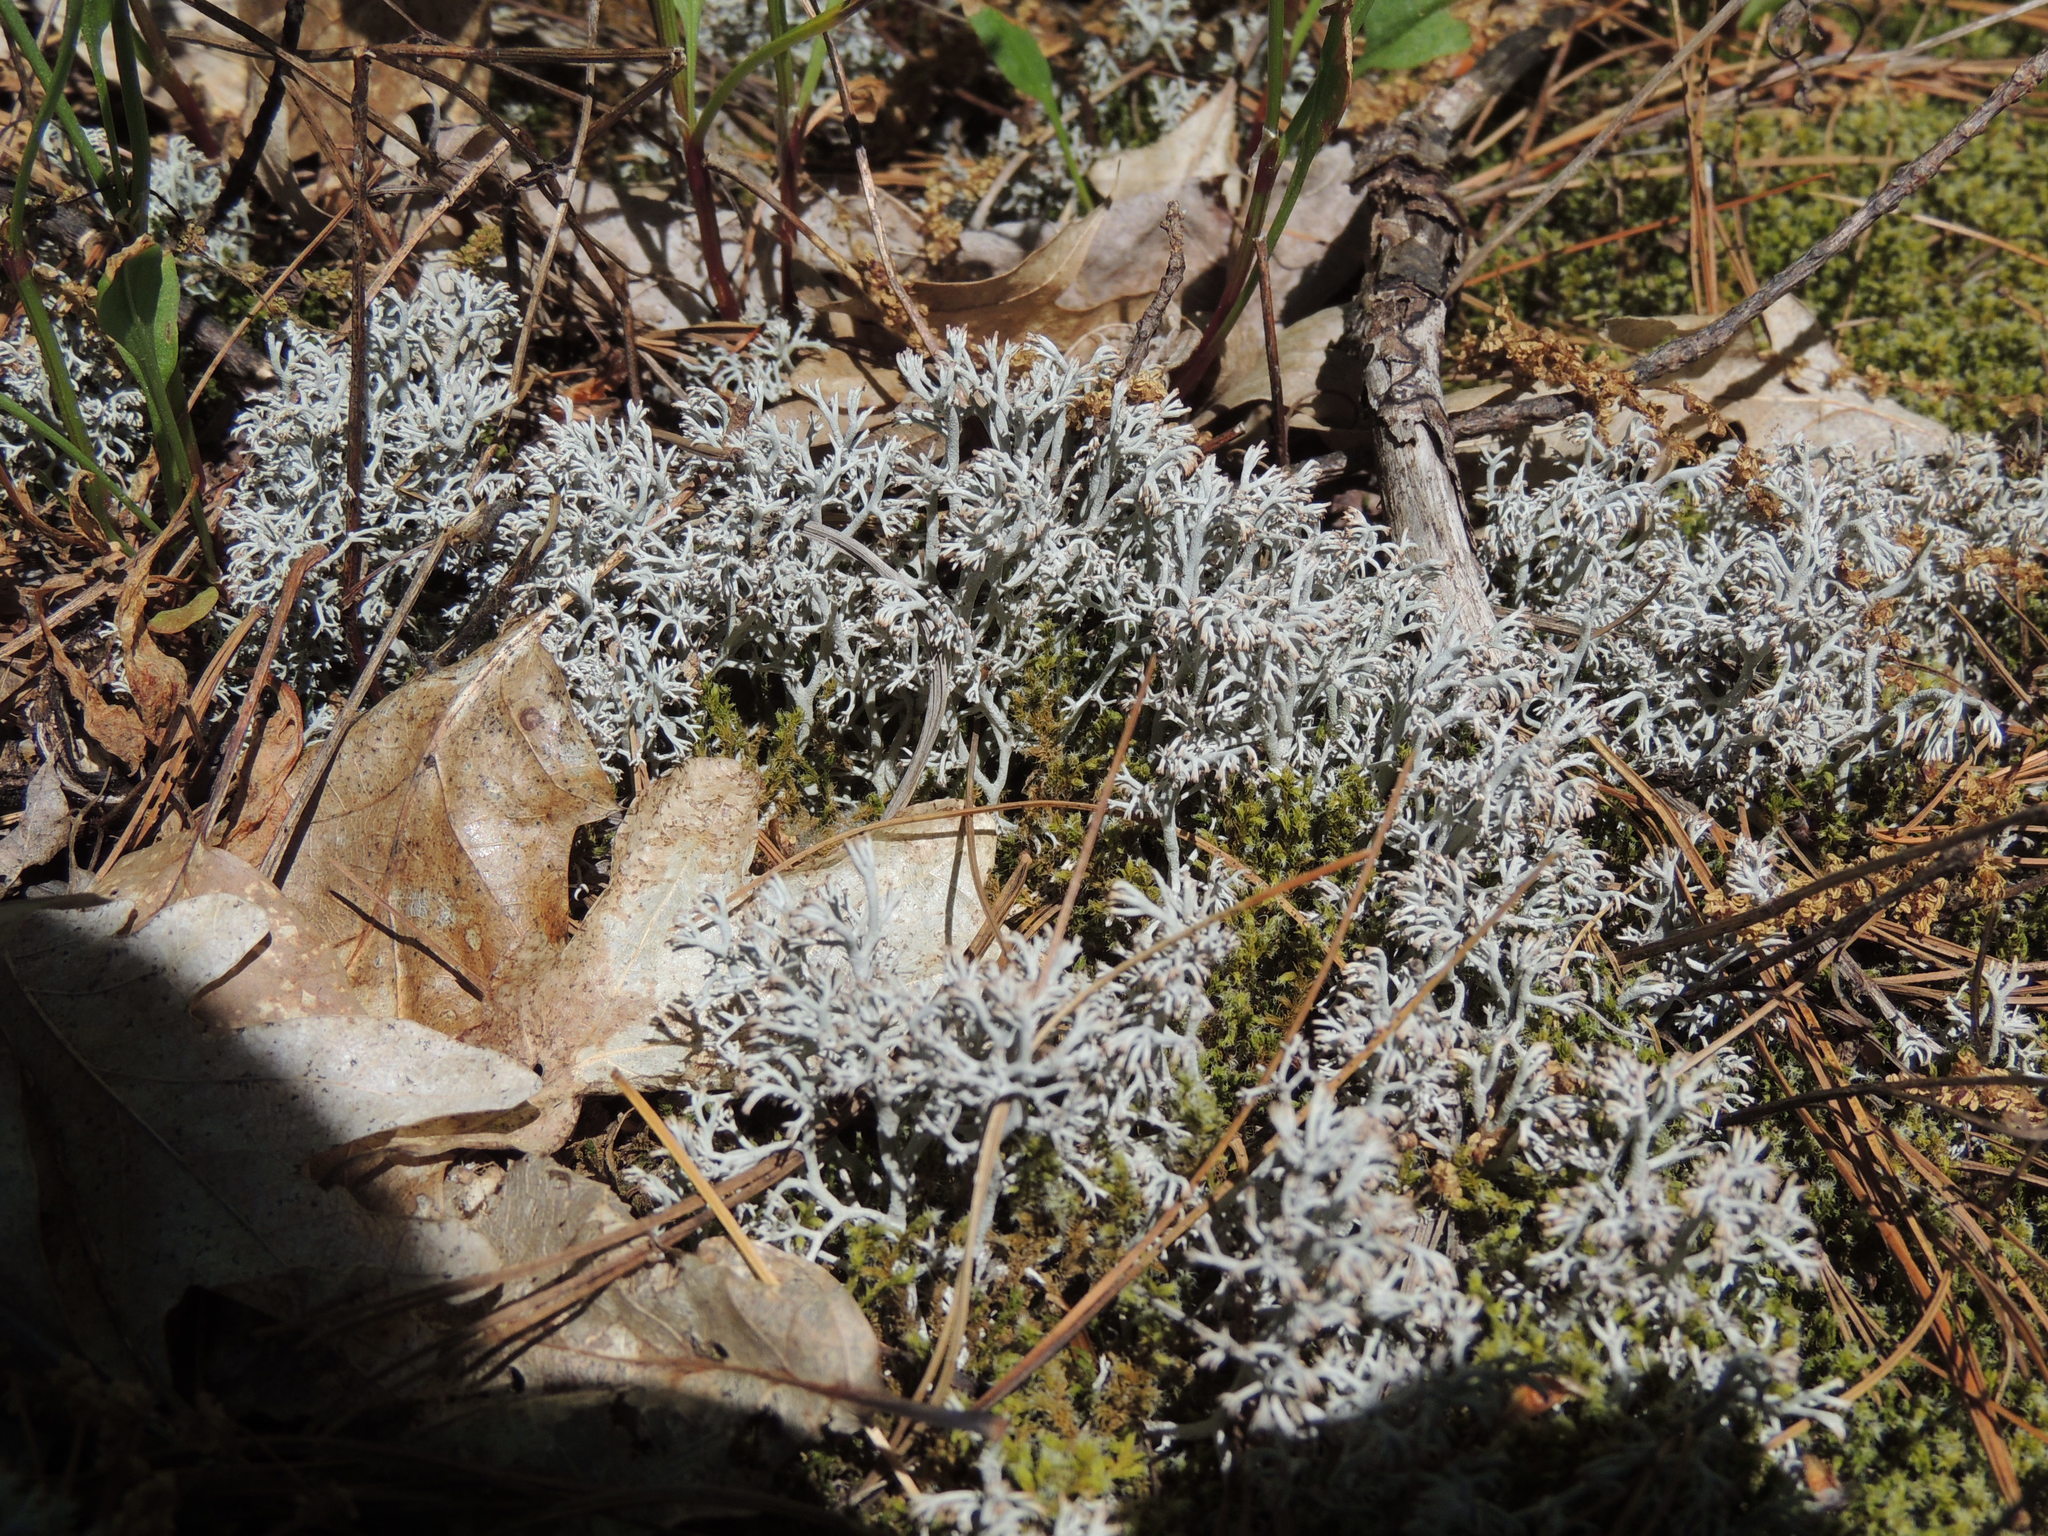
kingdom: Fungi
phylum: Ascomycota
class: Lecanoromycetes
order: Lecanorales
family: Cladoniaceae
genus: Cladonia
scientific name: Cladonia rangiferina
